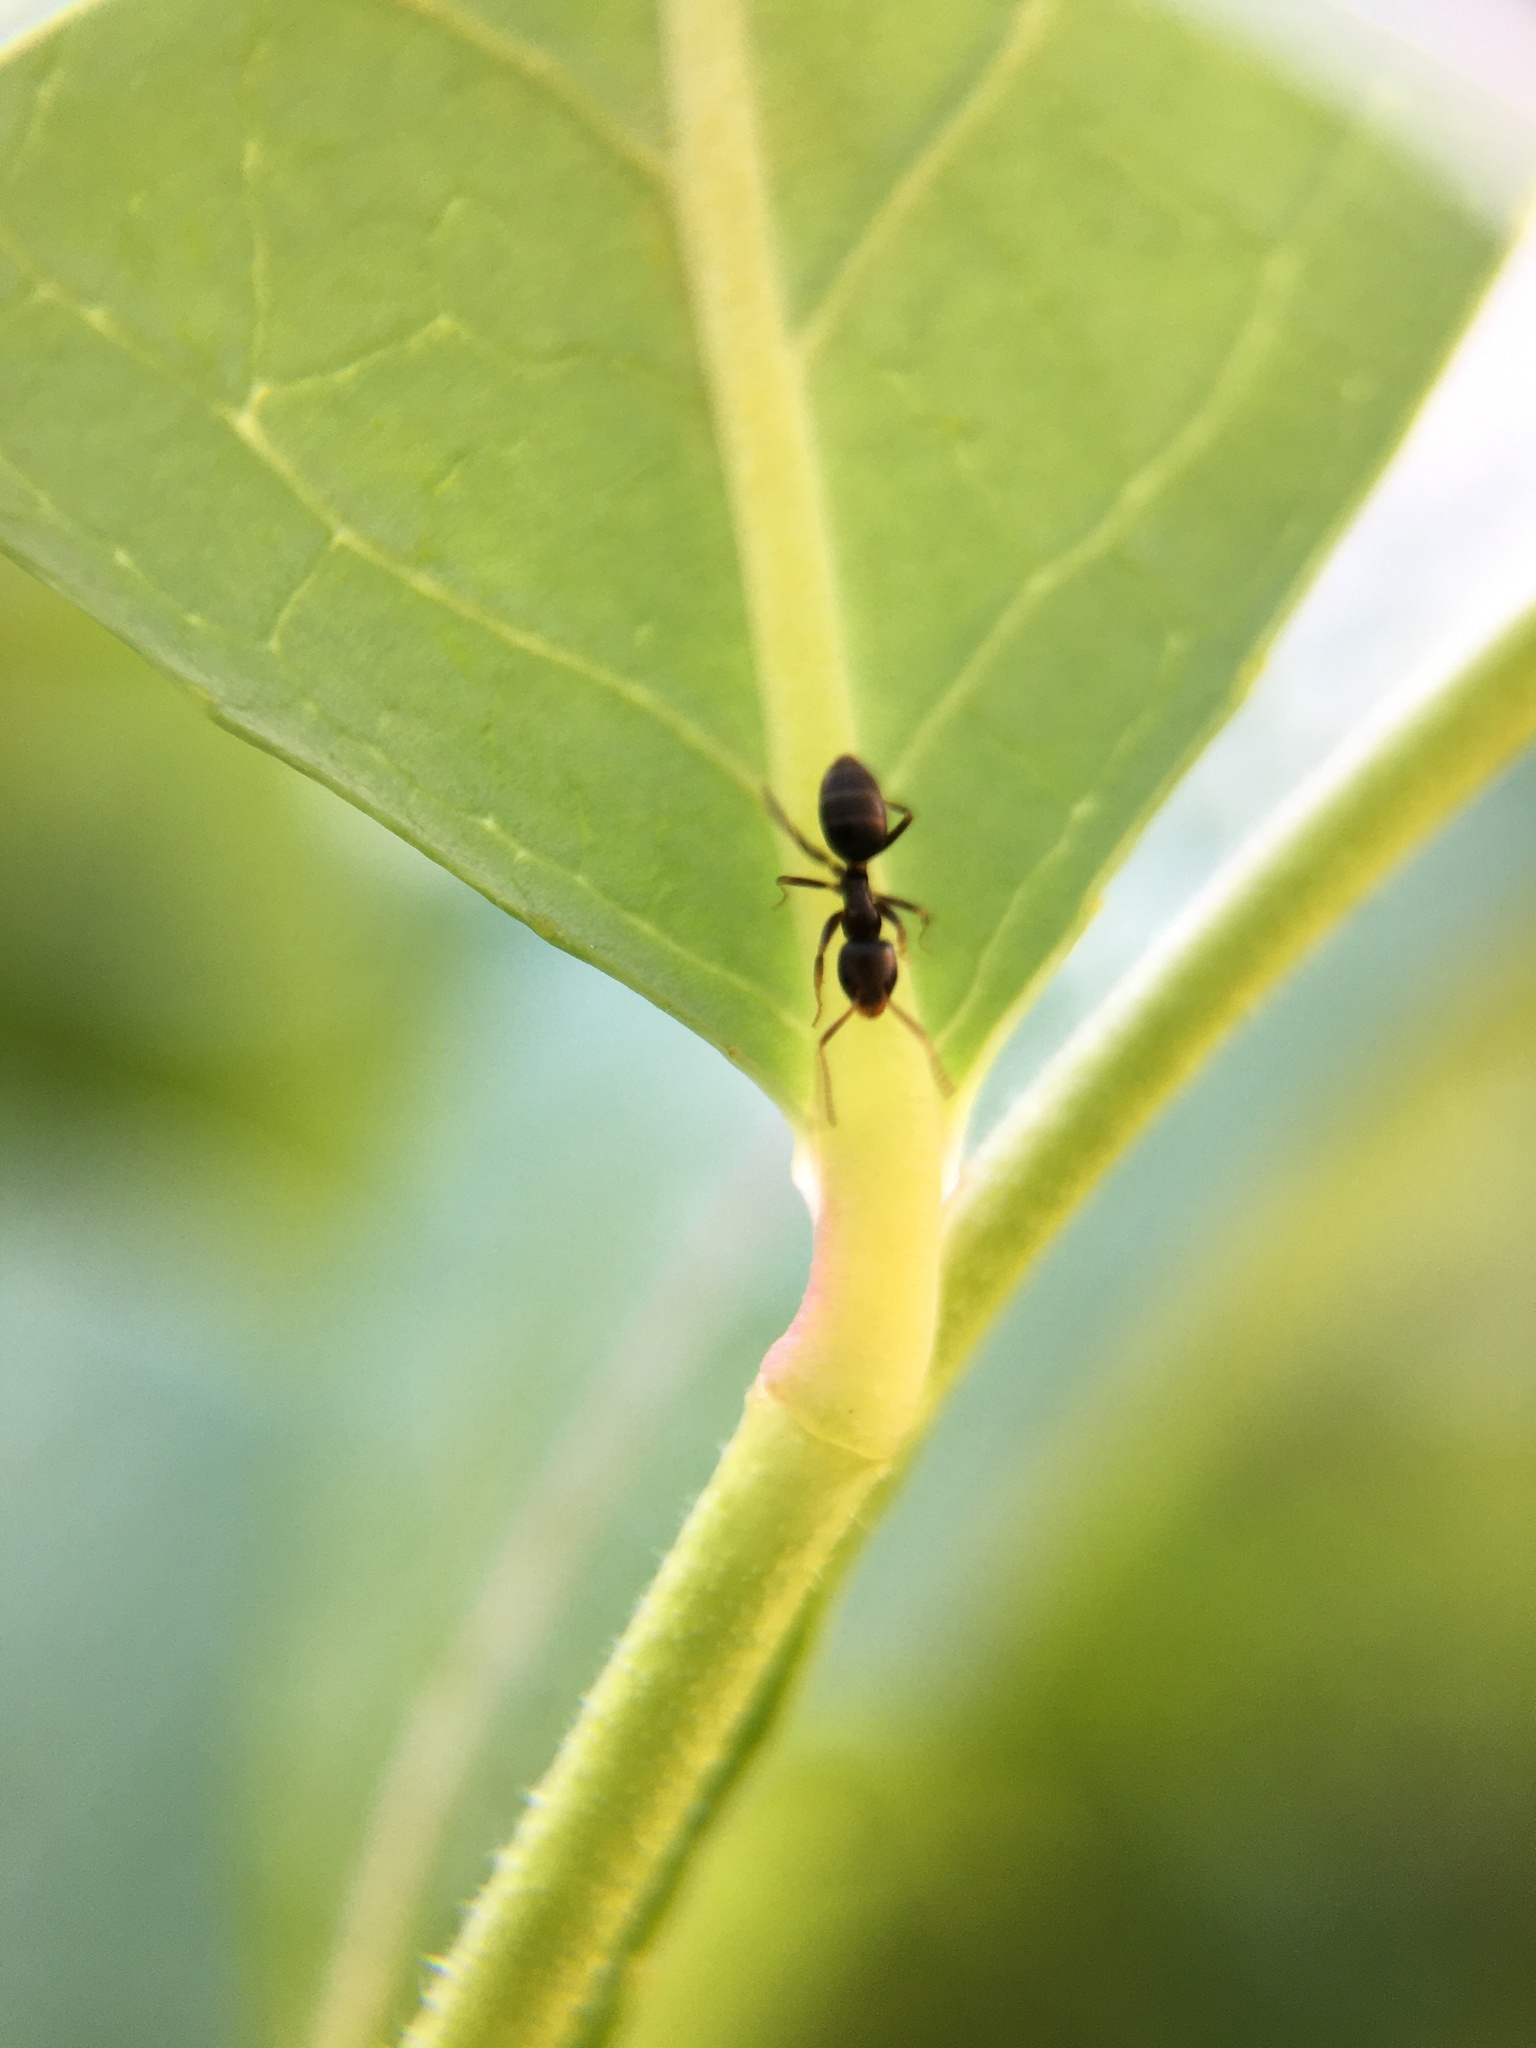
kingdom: Animalia
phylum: Arthropoda
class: Insecta
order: Hymenoptera
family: Formicidae
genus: Tapinoma
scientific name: Tapinoma sessile
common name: Odorous house ant
